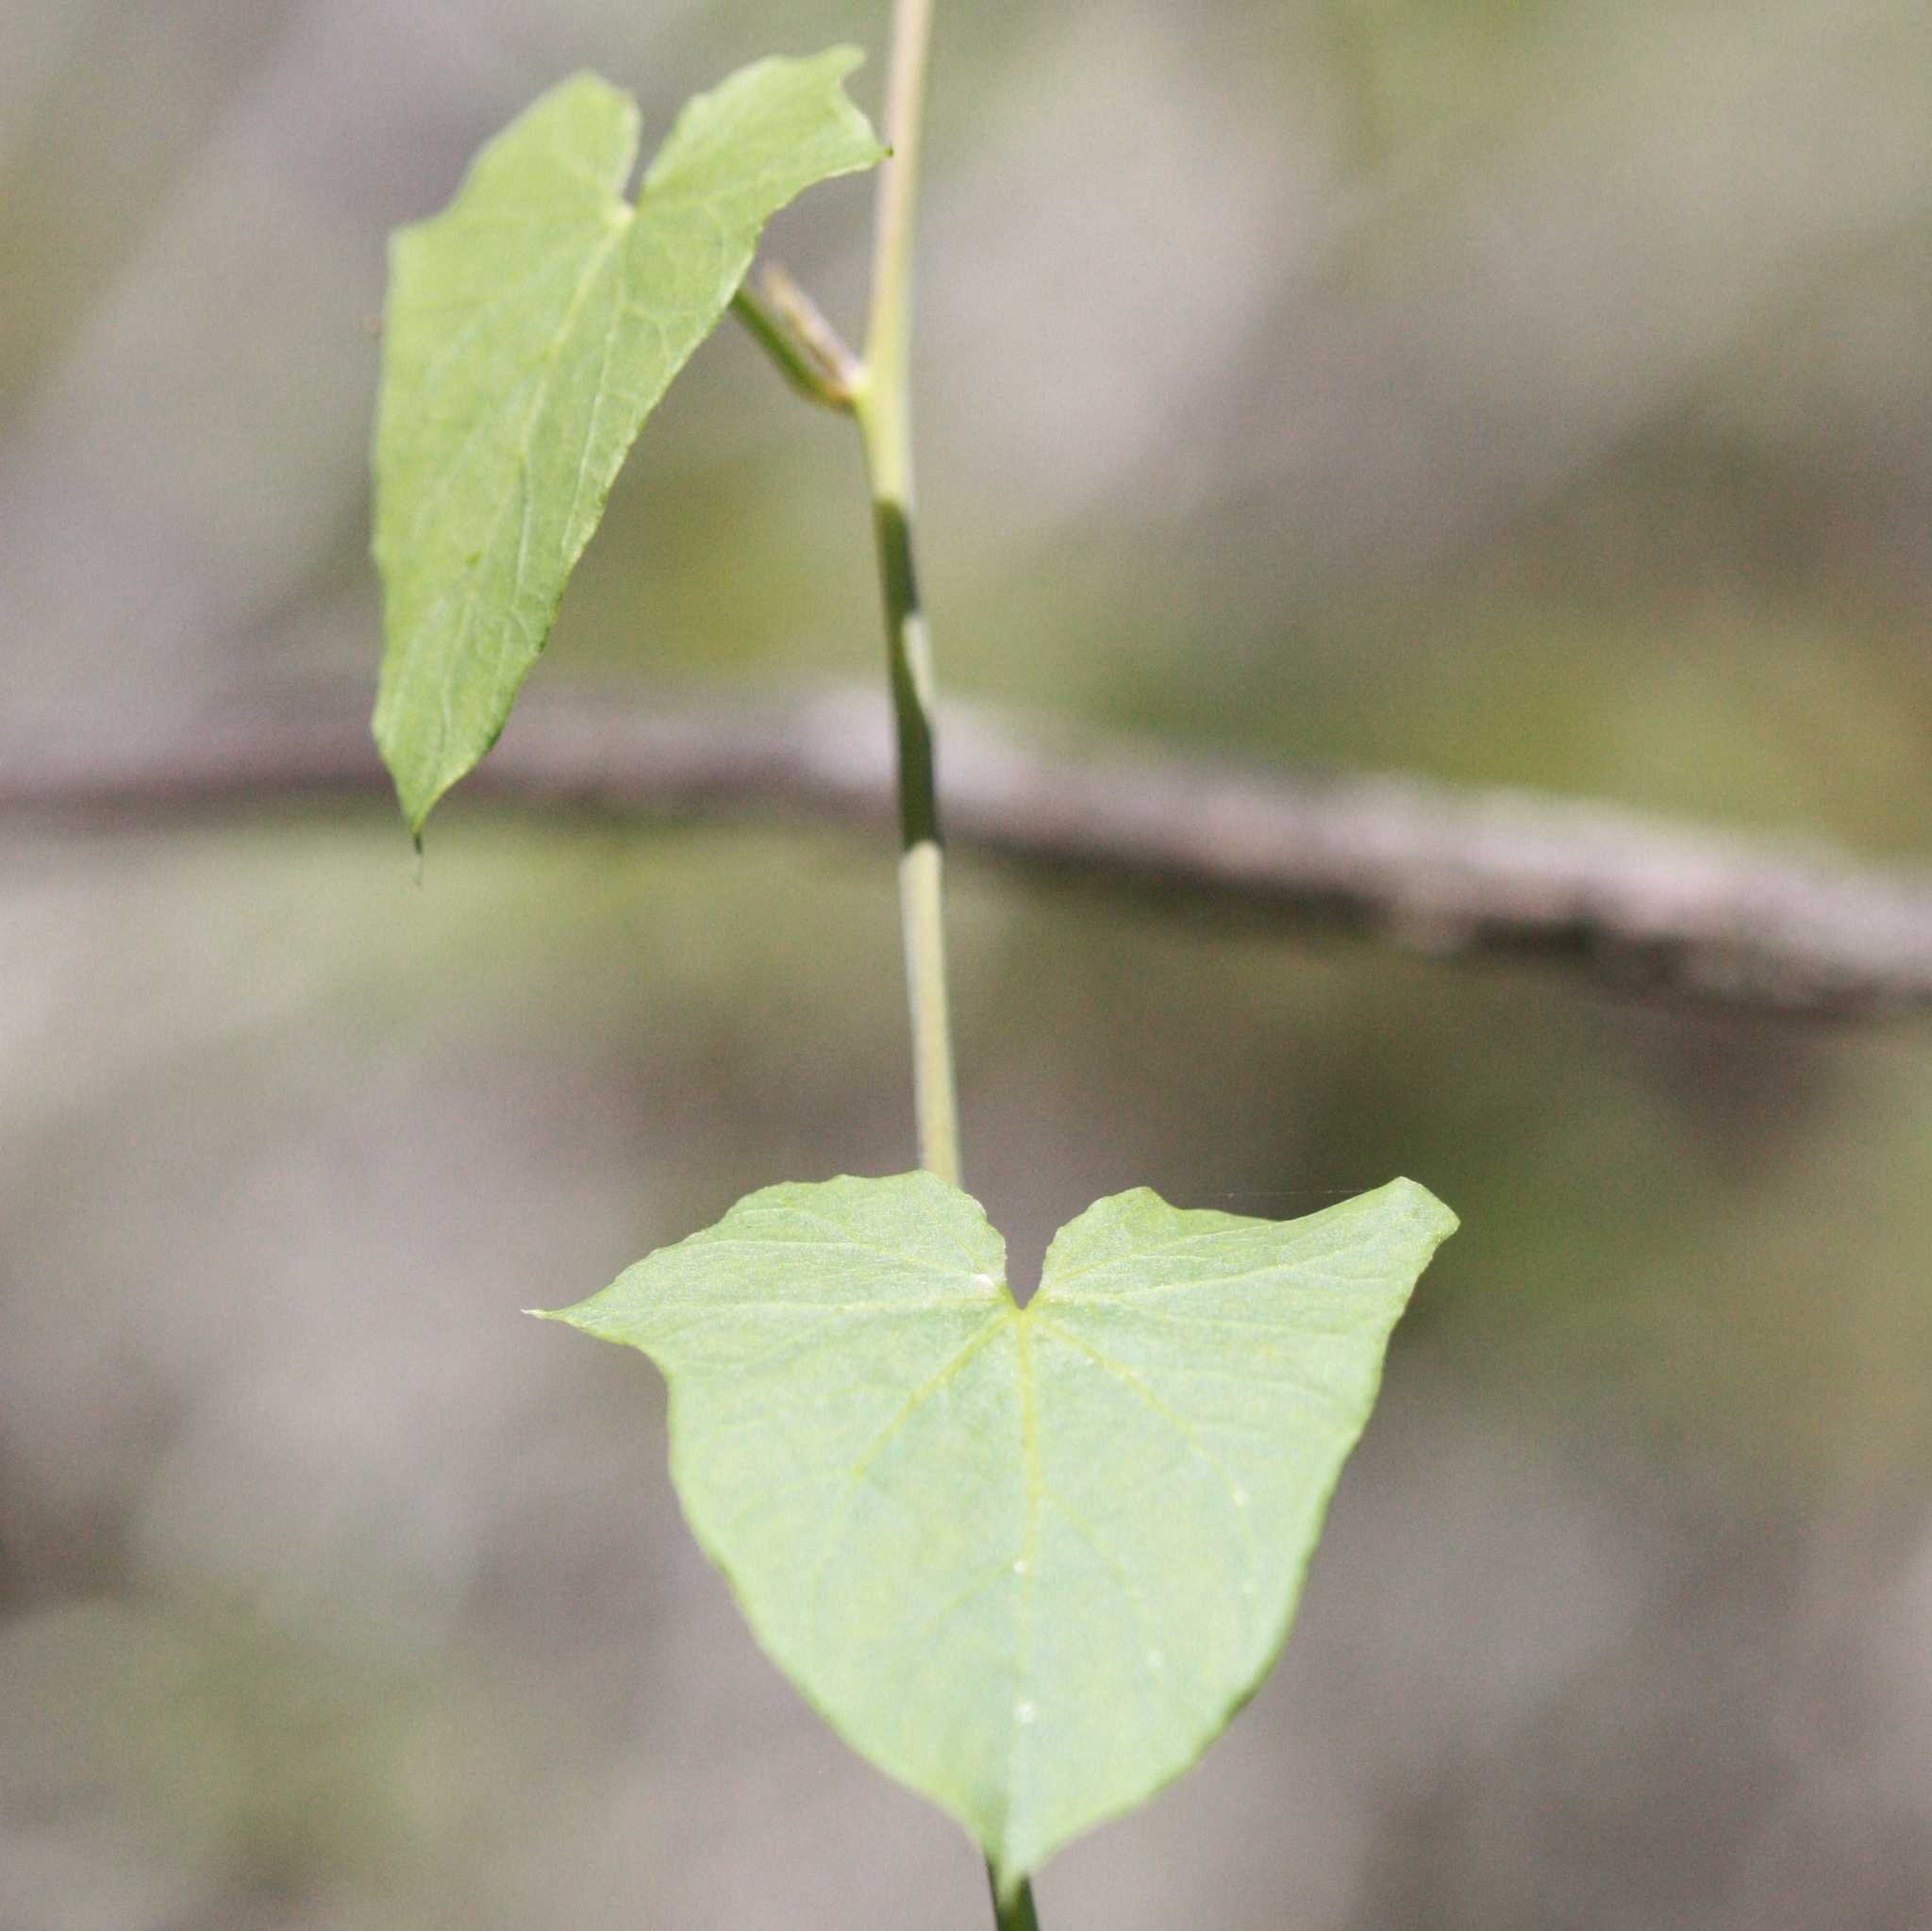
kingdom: Plantae
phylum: Tracheophyta
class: Magnoliopsida
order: Solanales
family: Convolvulaceae
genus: Calystegia
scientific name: Calystegia purpurata
